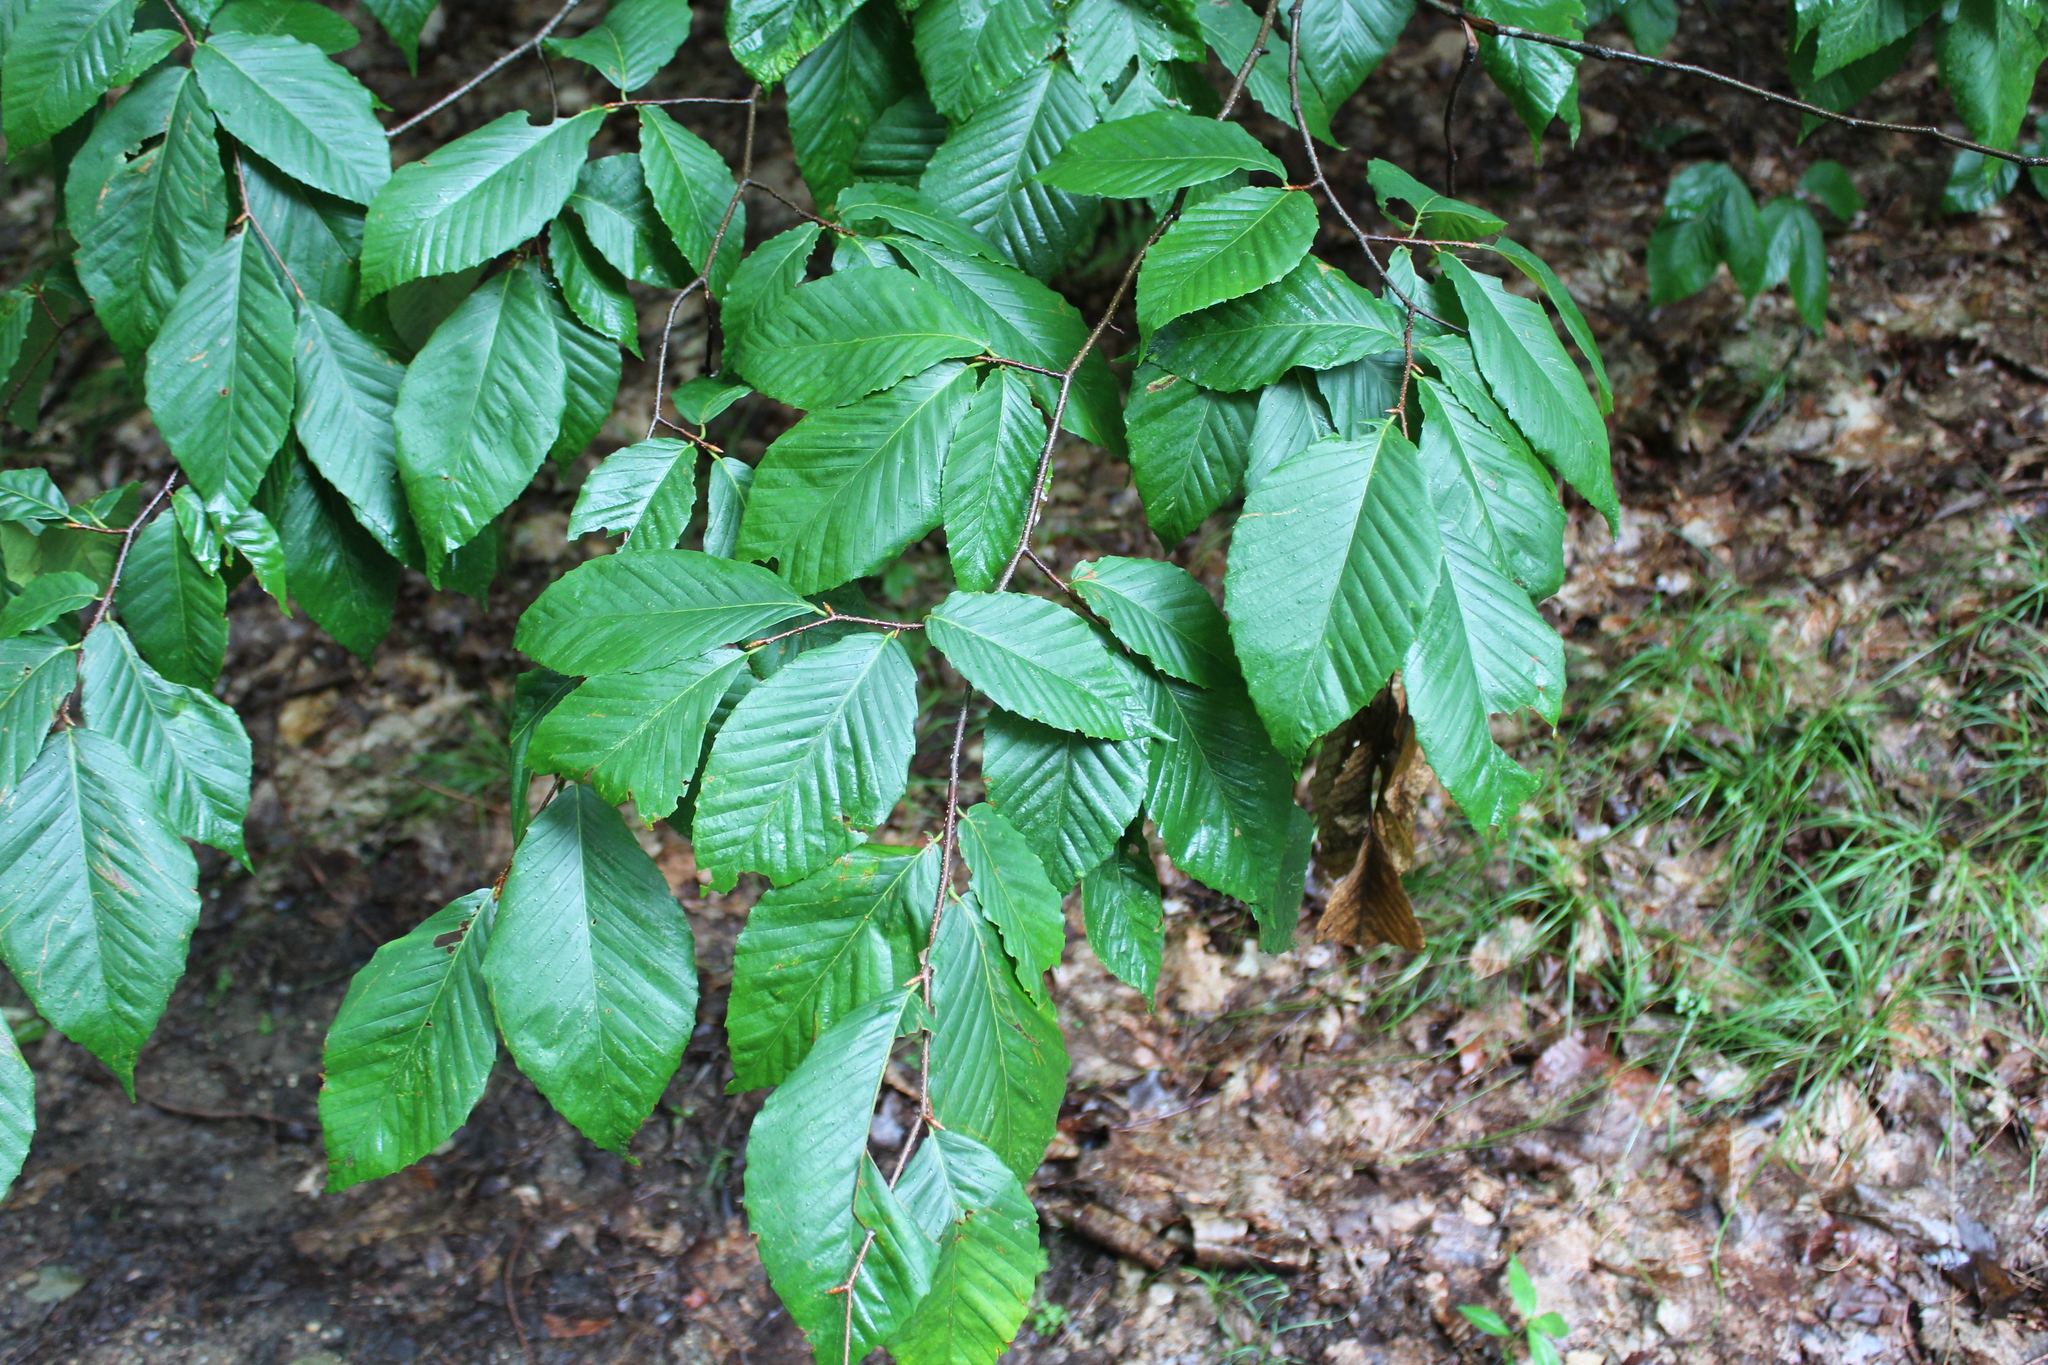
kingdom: Plantae
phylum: Tracheophyta
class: Magnoliopsida
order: Fagales
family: Fagaceae
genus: Fagus
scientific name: Fagus grandifolia
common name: American beech
